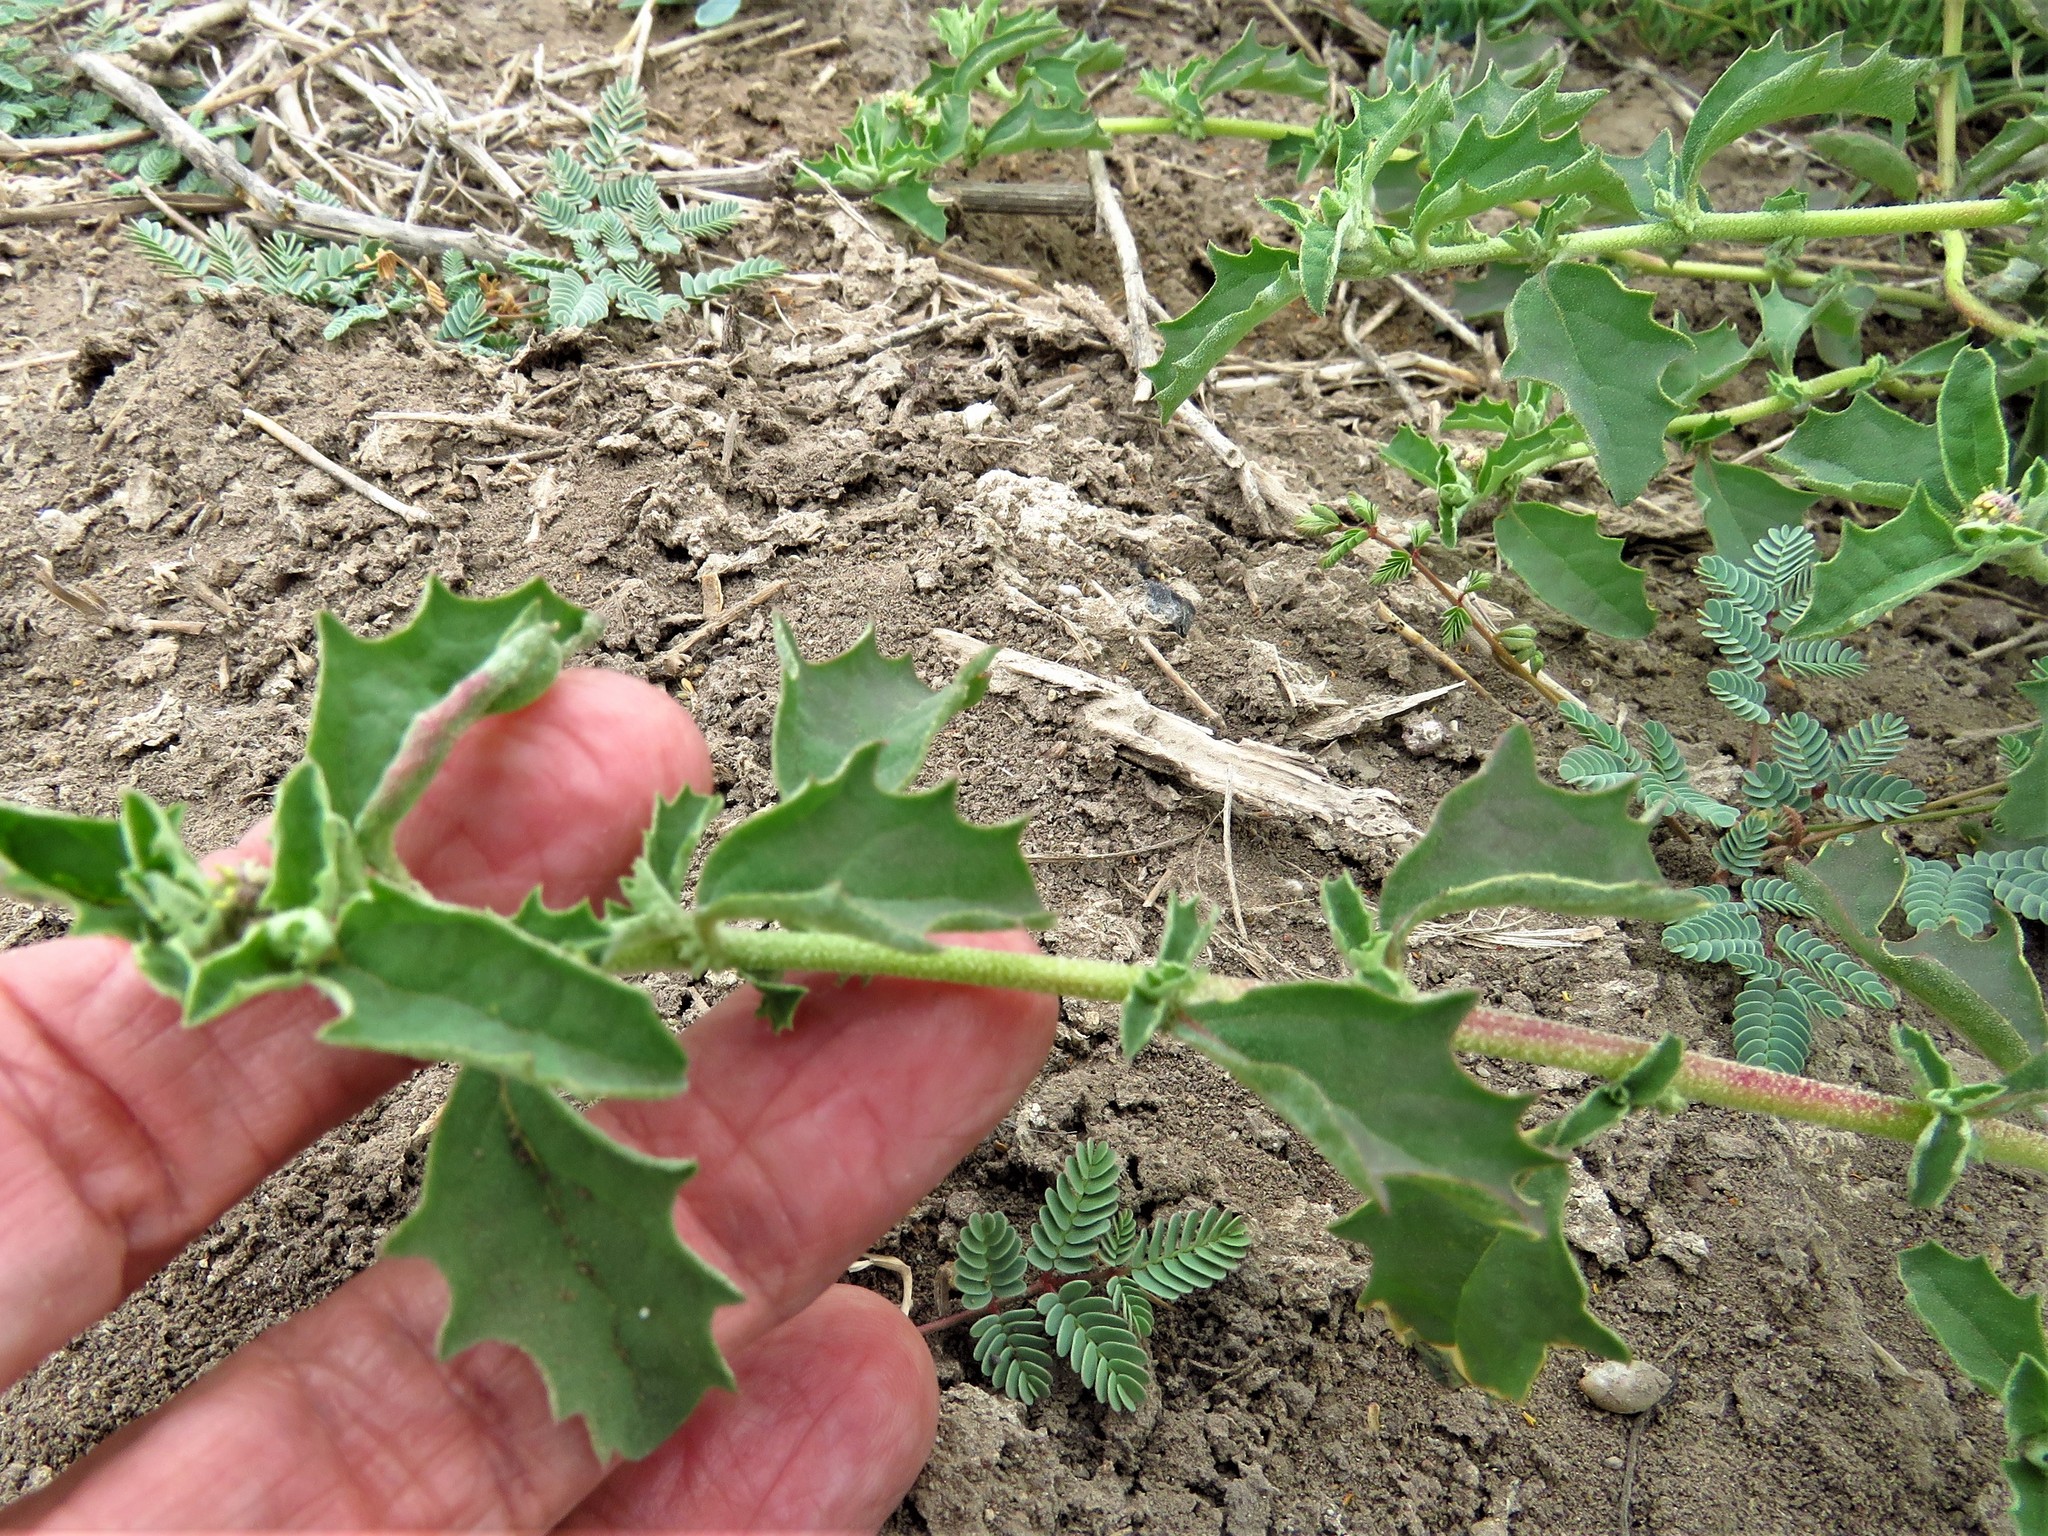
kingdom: Plantae
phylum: Tracheophyta
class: Magnoliopsida
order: Caryophyllales
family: Amaranthaceae
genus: Suckleya
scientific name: Suckleya suckleyana
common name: Poison suckleya
